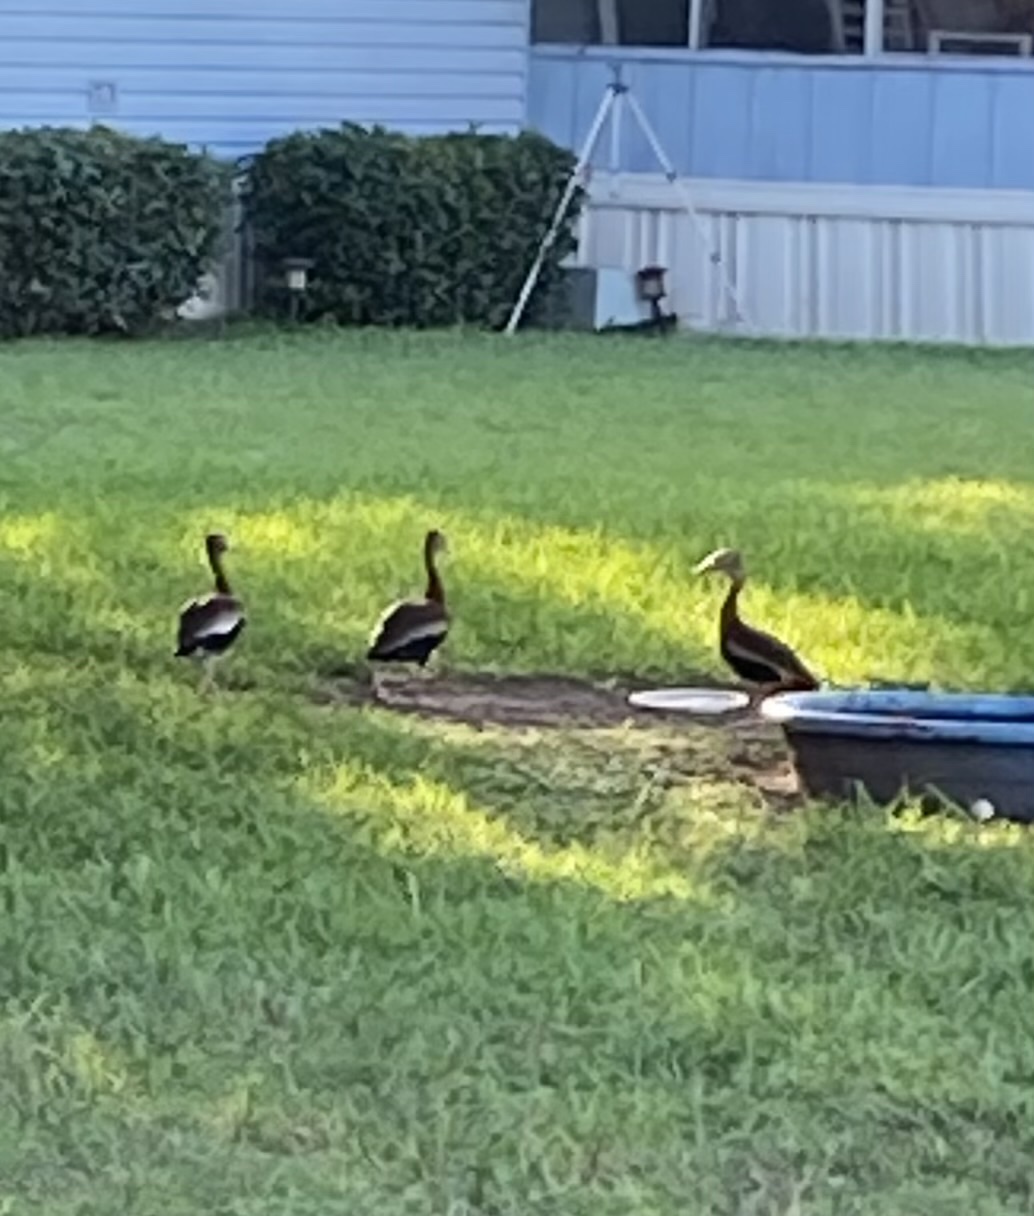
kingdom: Animalia
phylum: Chordata
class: Aves
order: Anseriformes
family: Anatidae
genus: Dendrocygna
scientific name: Dendrocygna autumnalis
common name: Black-bellied whistling duck
